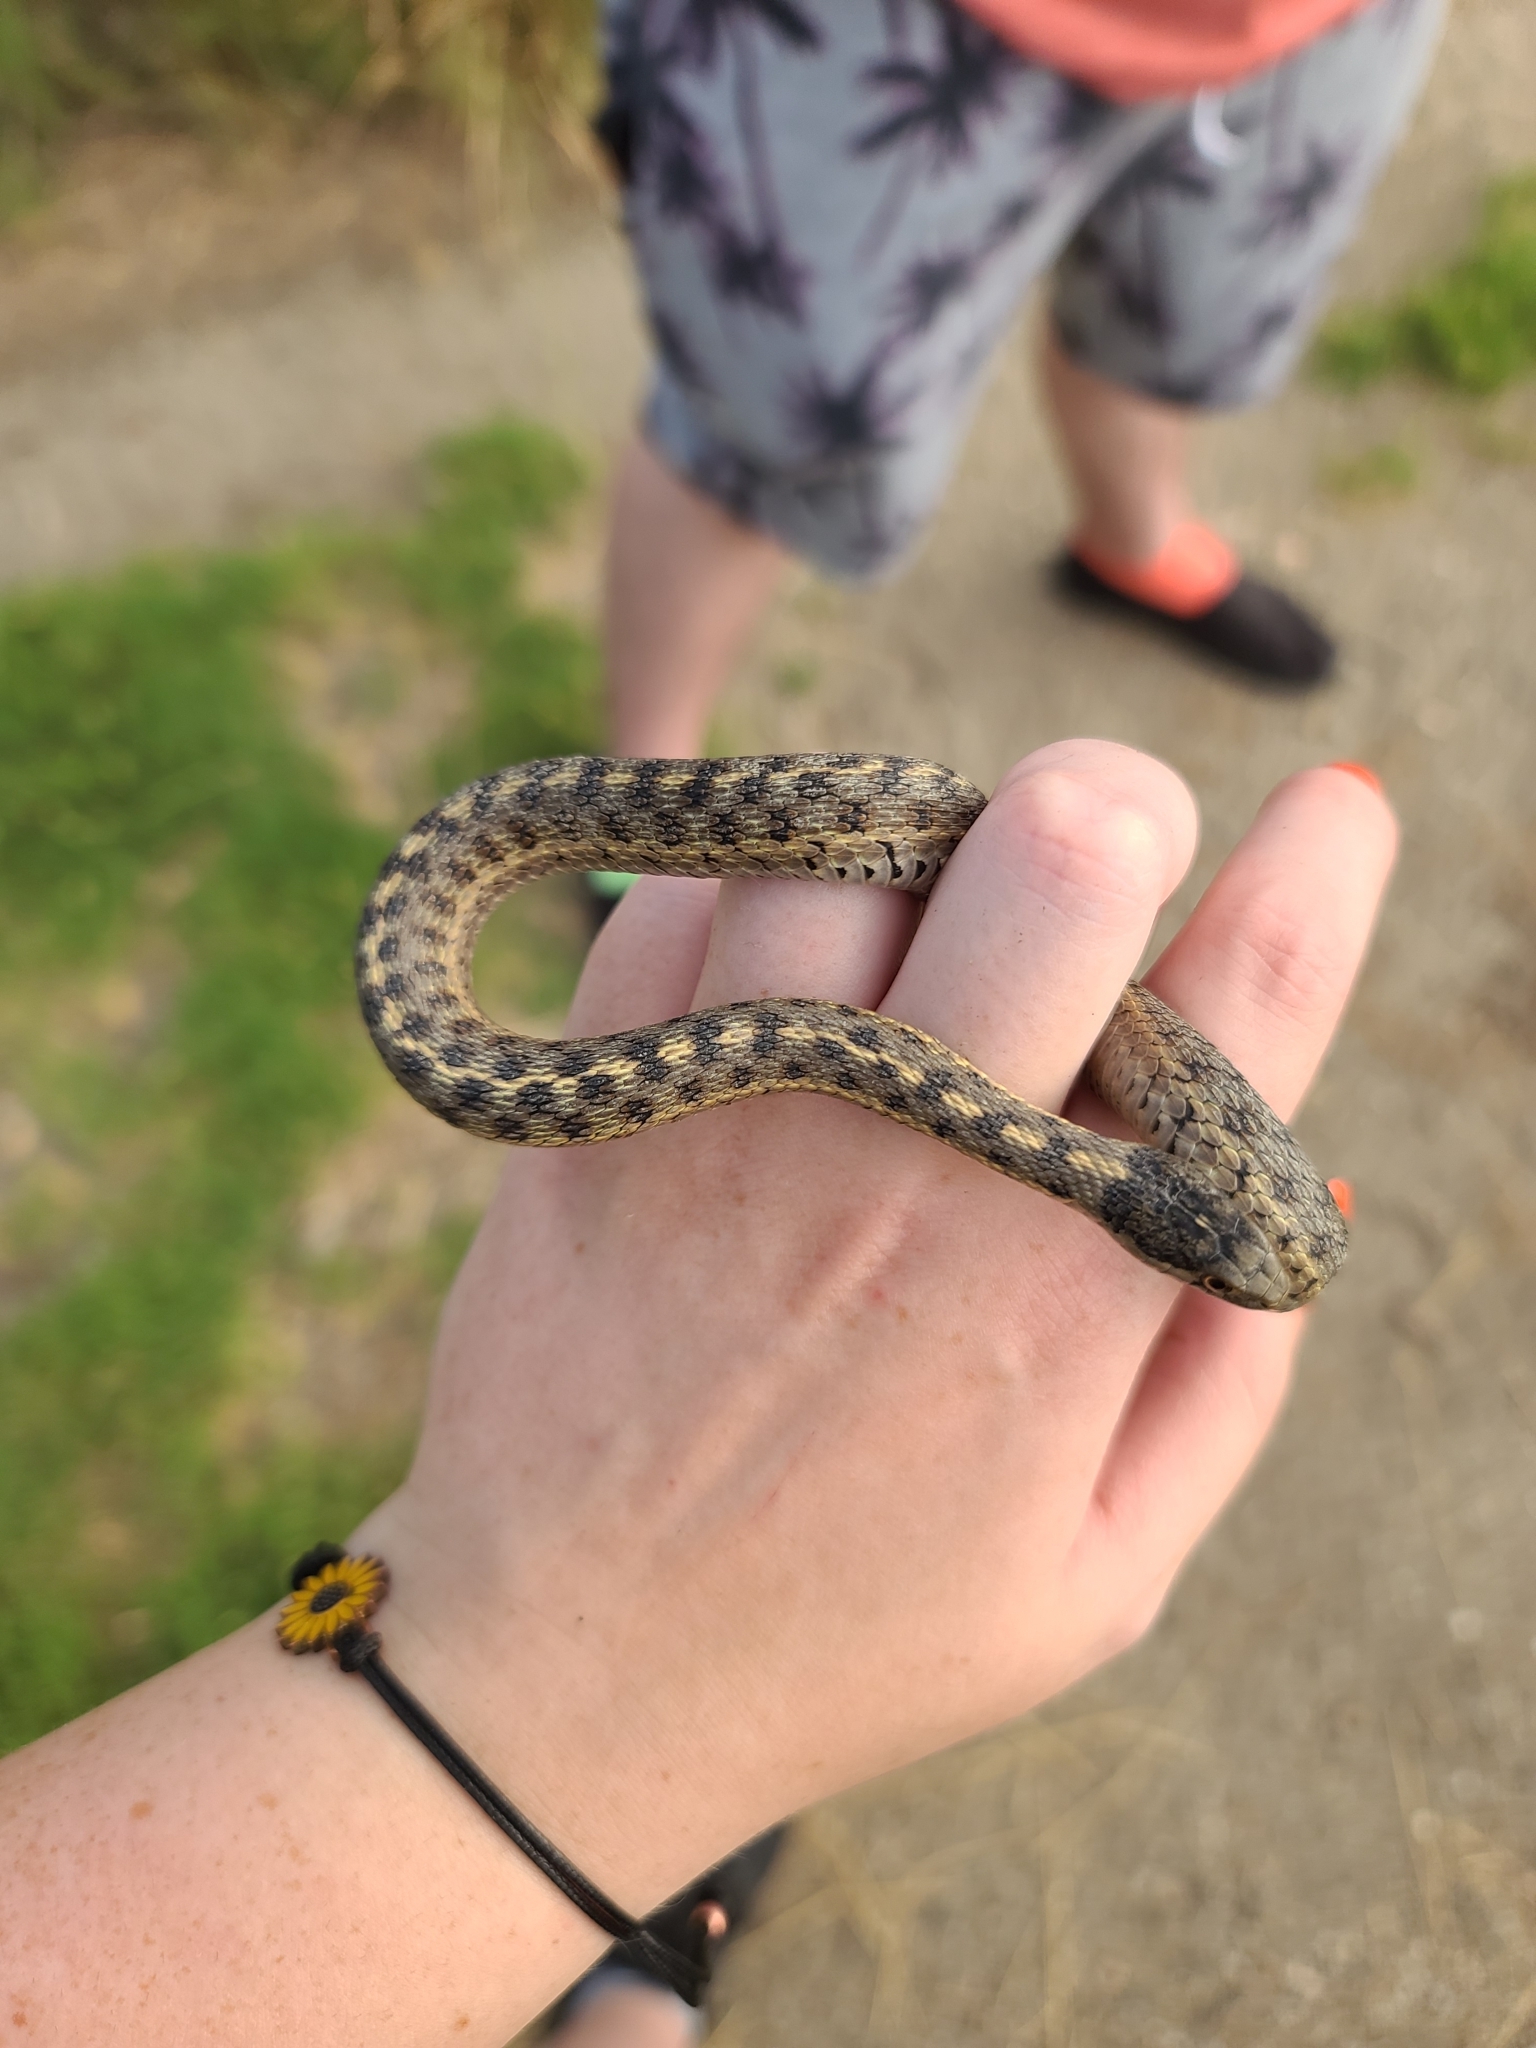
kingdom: Animalia
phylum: Chordata
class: Squamata
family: Colubridae
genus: Thamnophis
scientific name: Thamnophis elegans
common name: Western terrestrial garter snake
